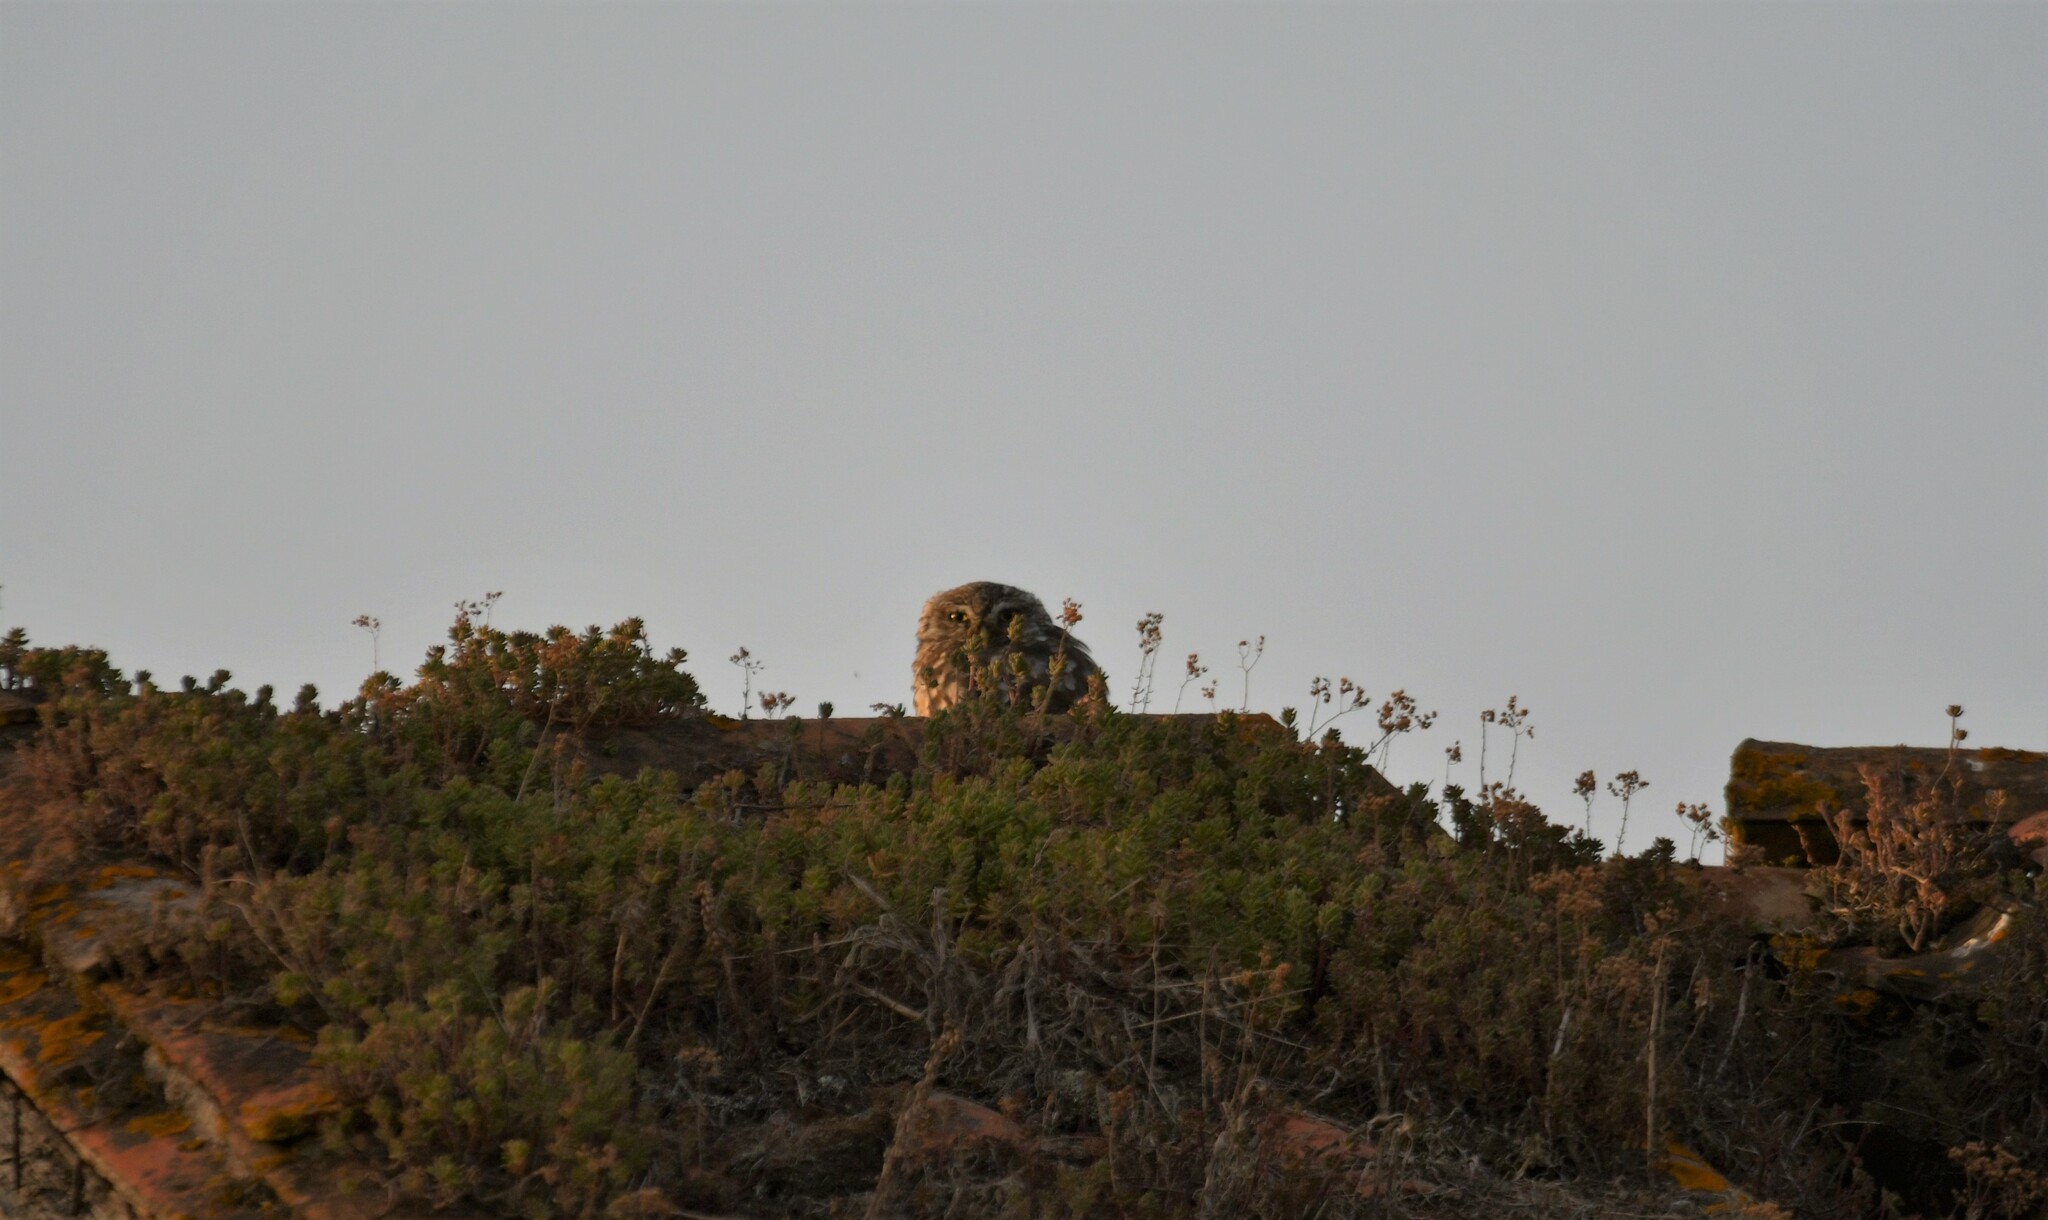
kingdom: Animalia
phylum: Chordata
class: Aves
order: Strigiformes
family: Strigidae
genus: Athene
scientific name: Athene noctua
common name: Little owl
